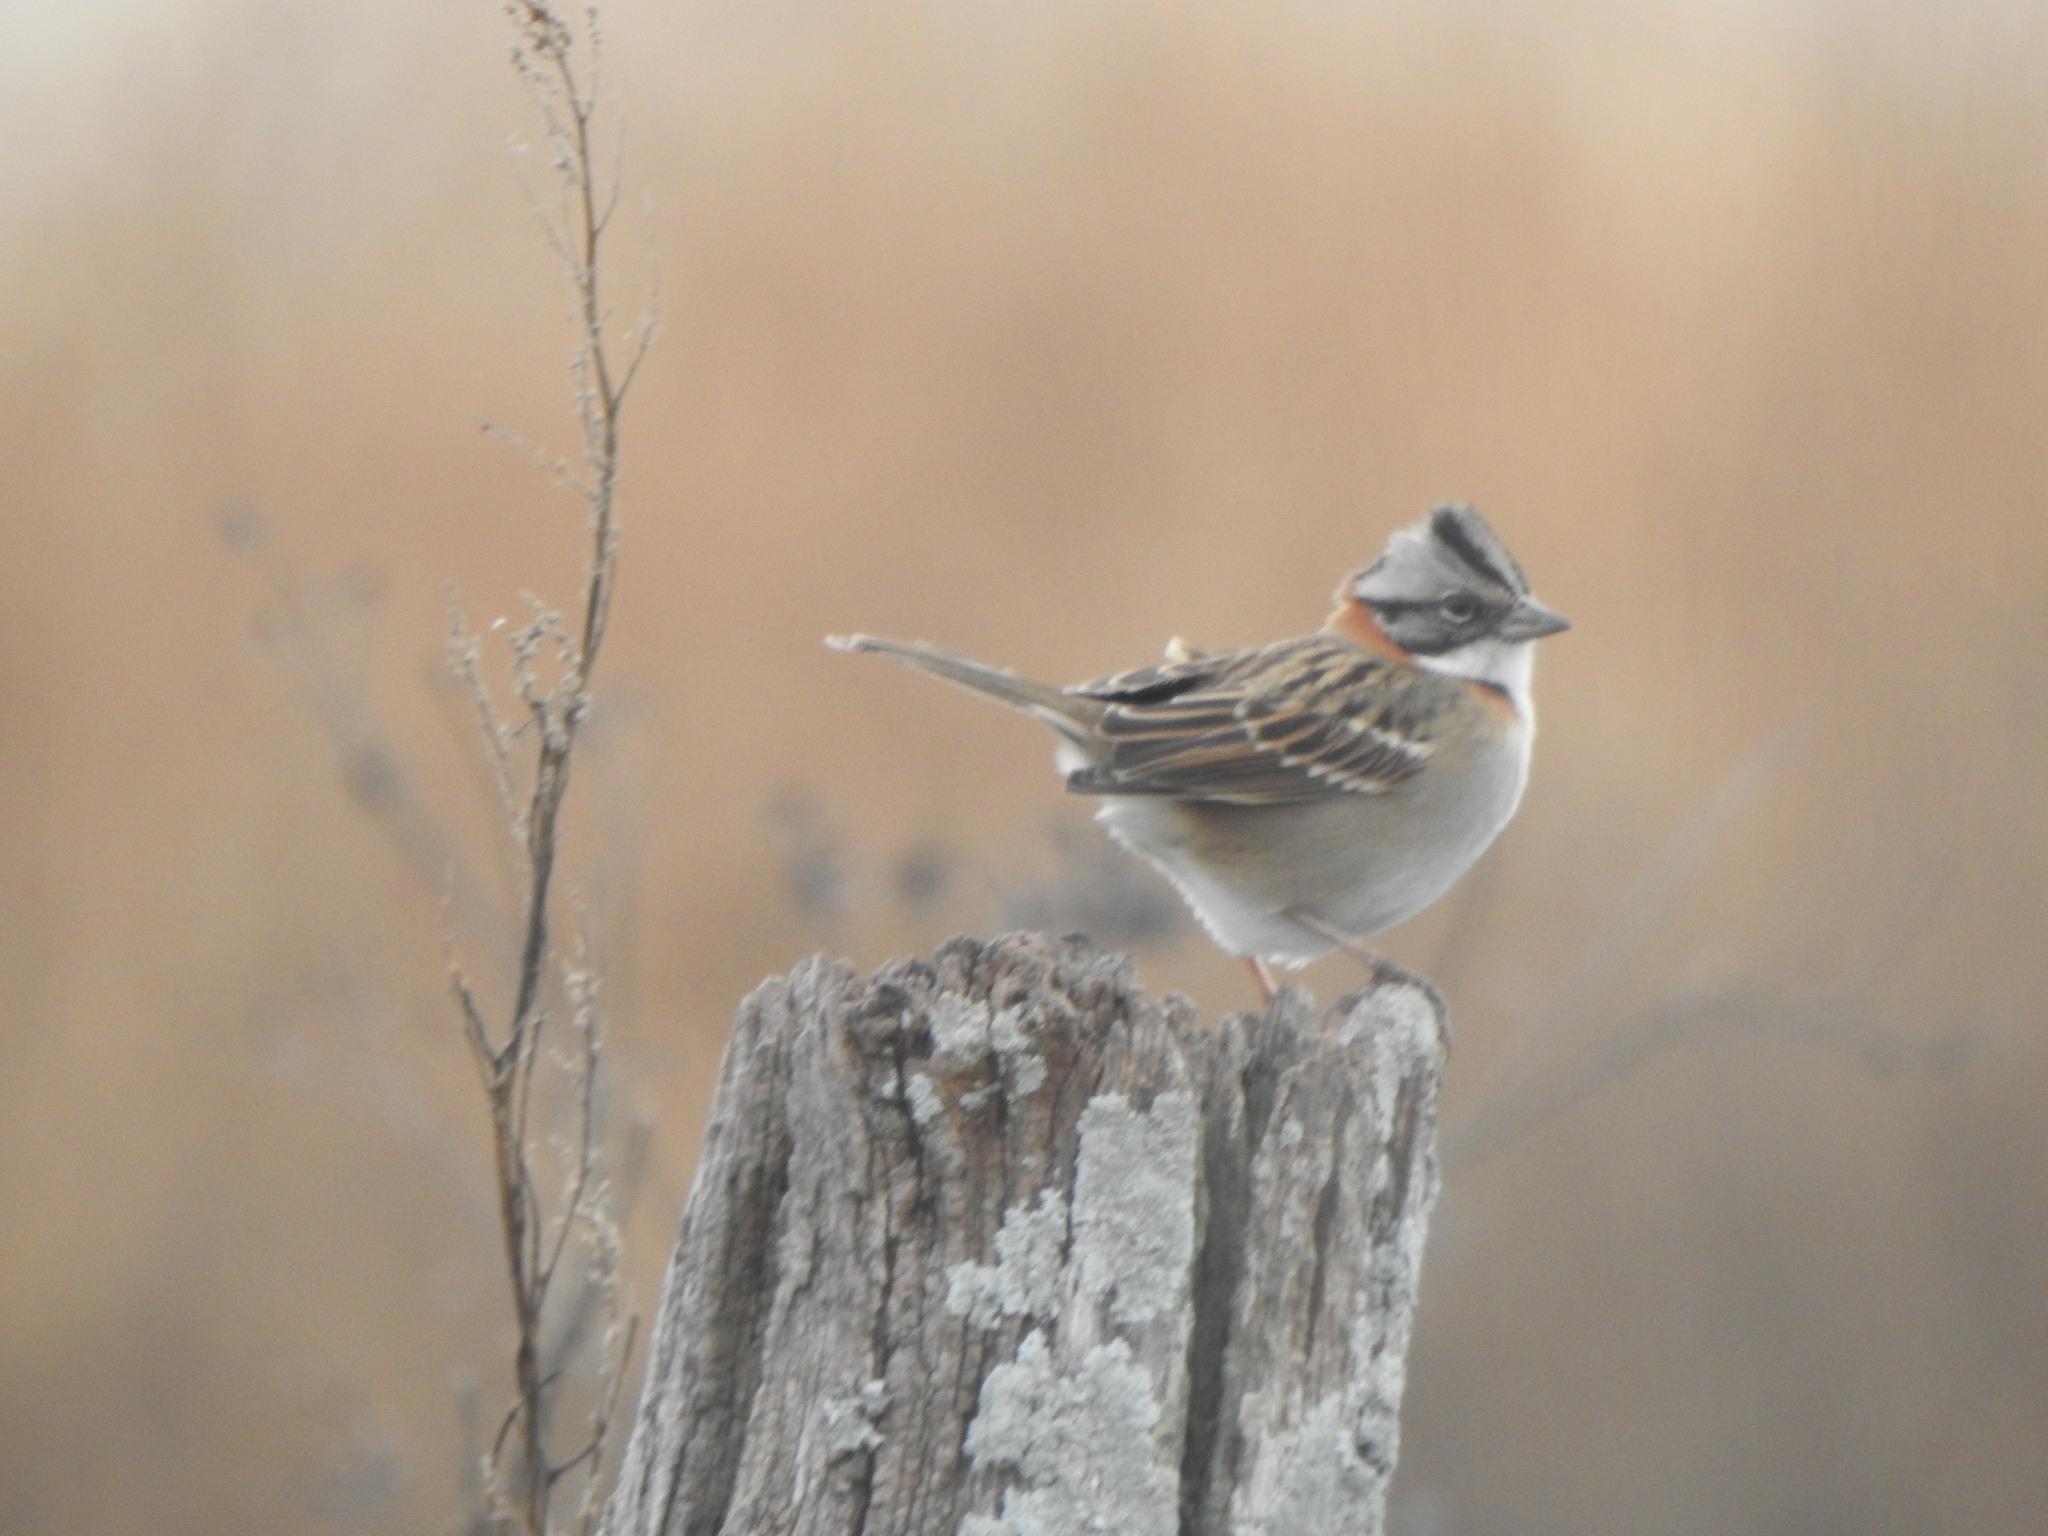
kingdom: Animalia
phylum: Chordata
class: Aves
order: Passeriformes
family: Passerellidae
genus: Zonotrichia
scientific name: Zonotrichia capensis
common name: Rufous-collared sparrow
